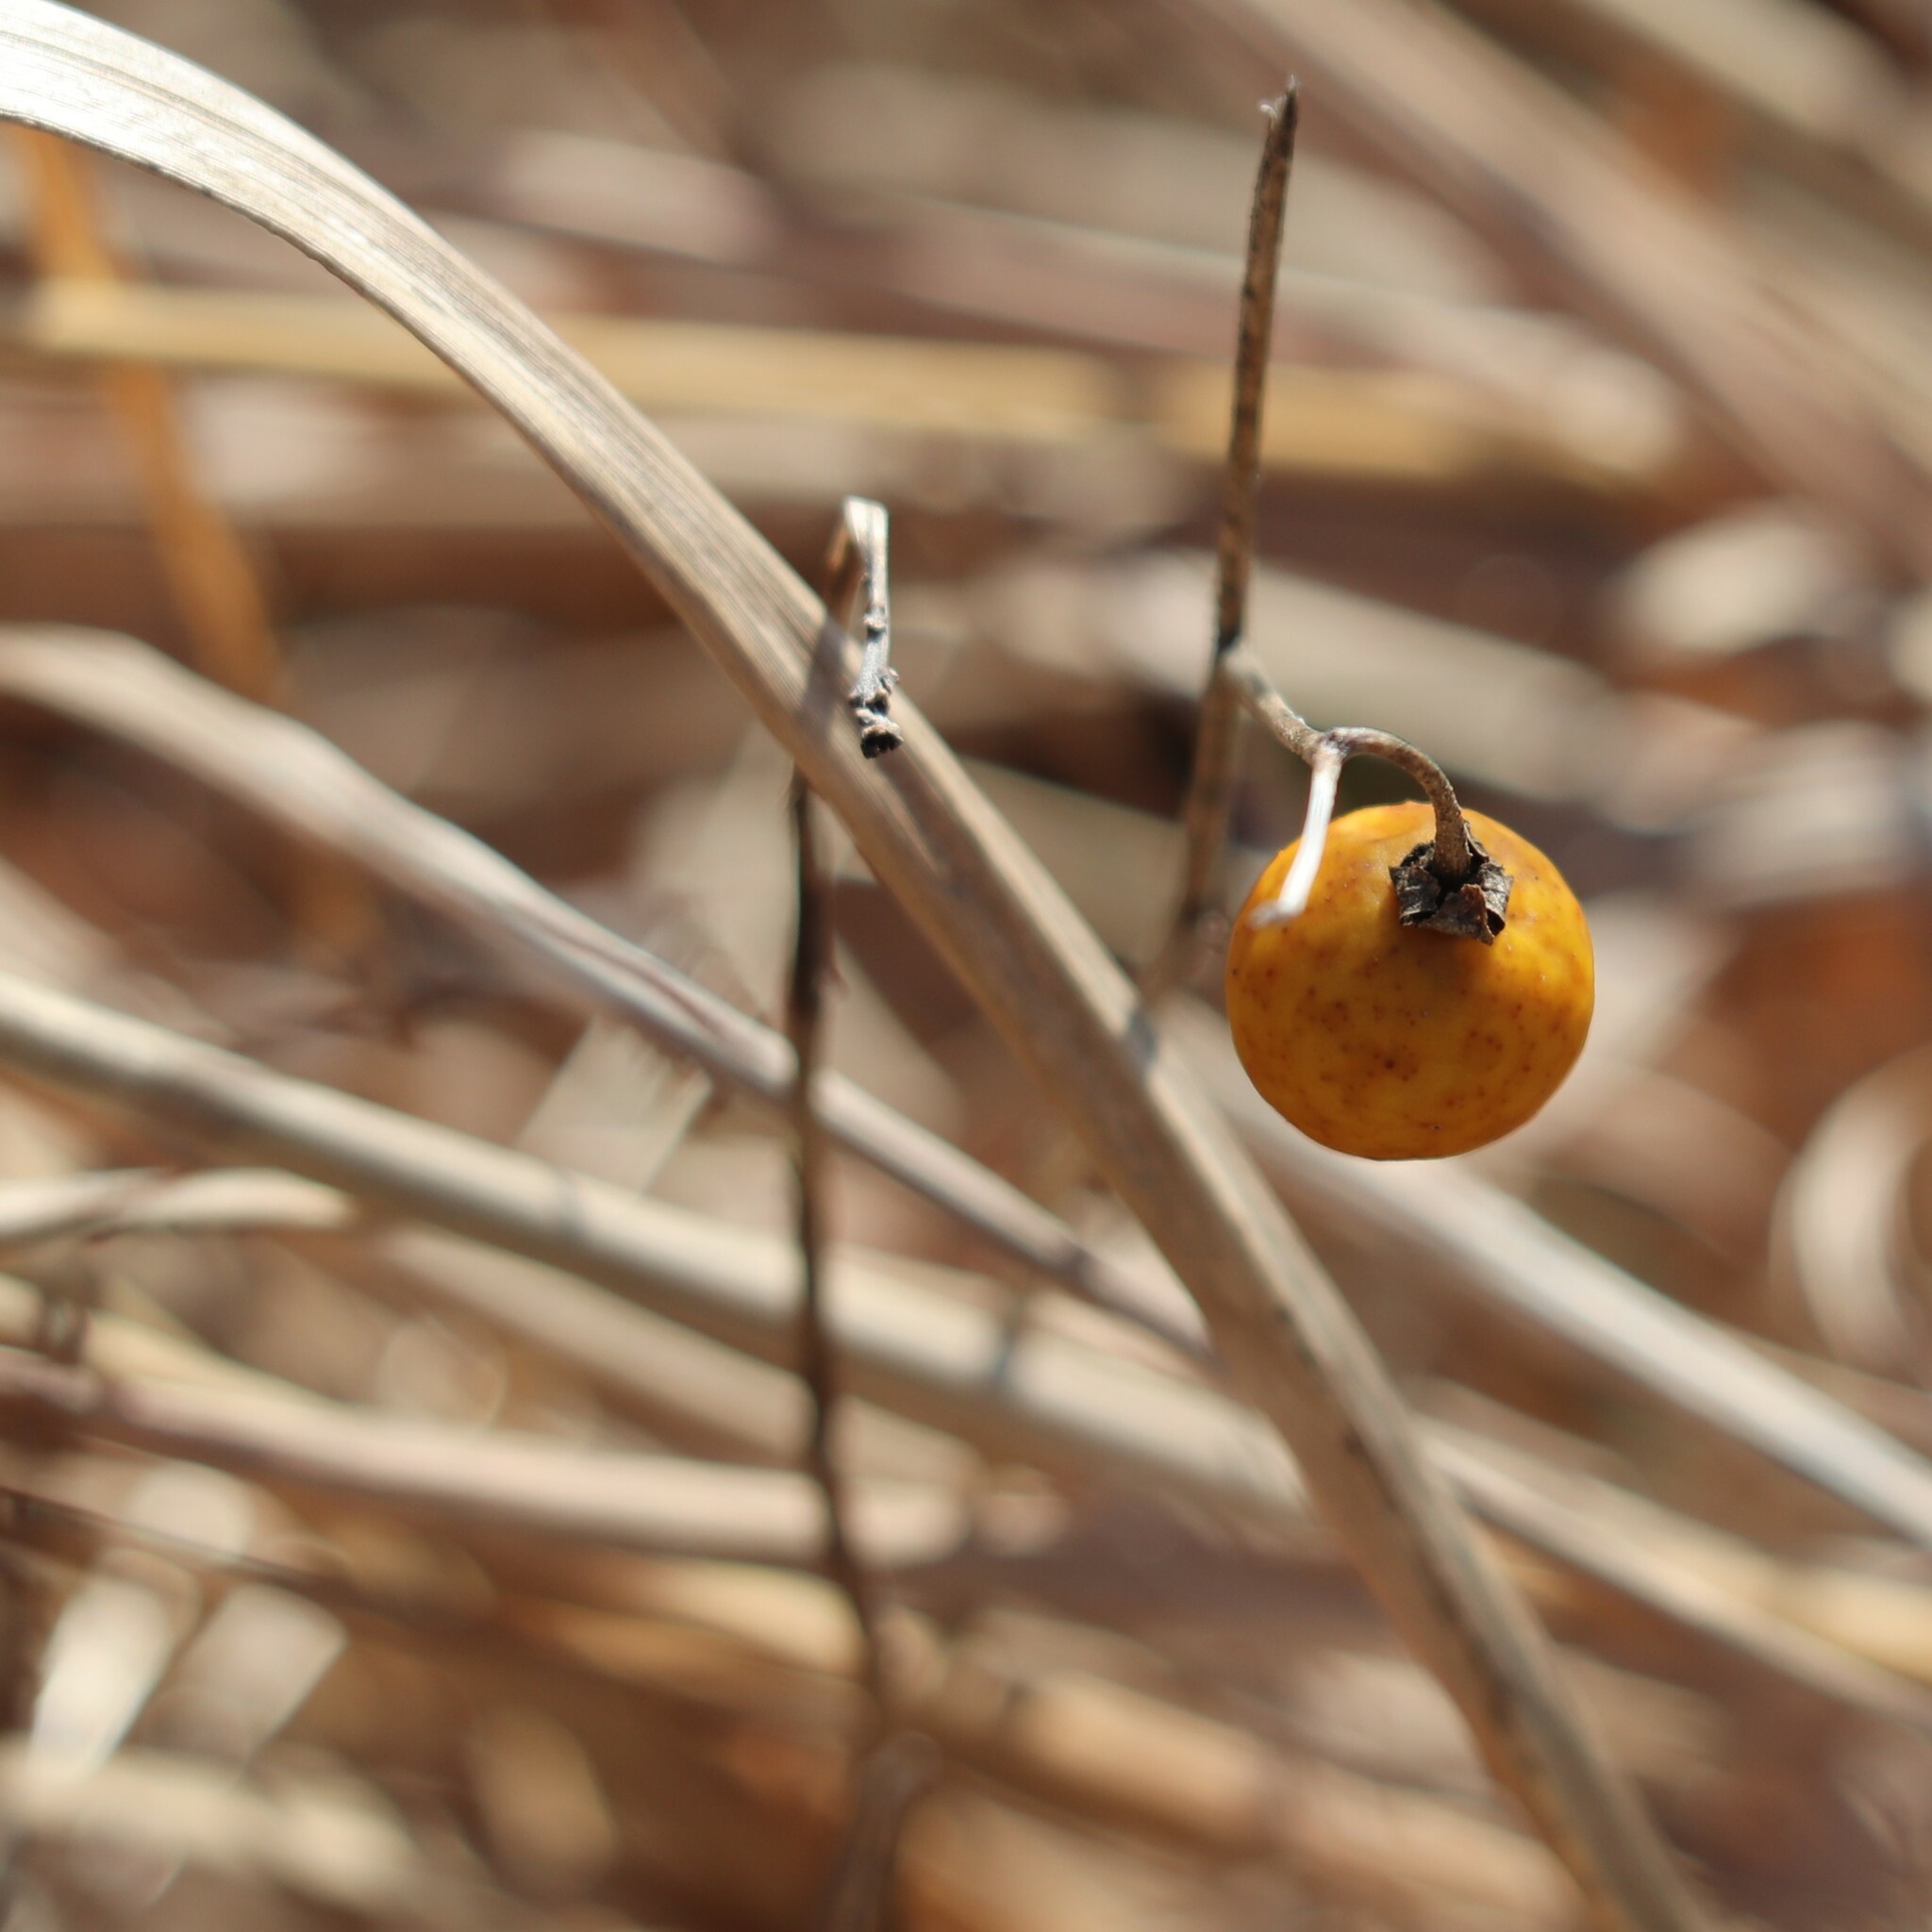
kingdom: Plantae
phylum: Tracheophyta
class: Magnoliopsida
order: Solanales
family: Solanaceae
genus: Solanum
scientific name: Solanum carolinense
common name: Horse-nettle
